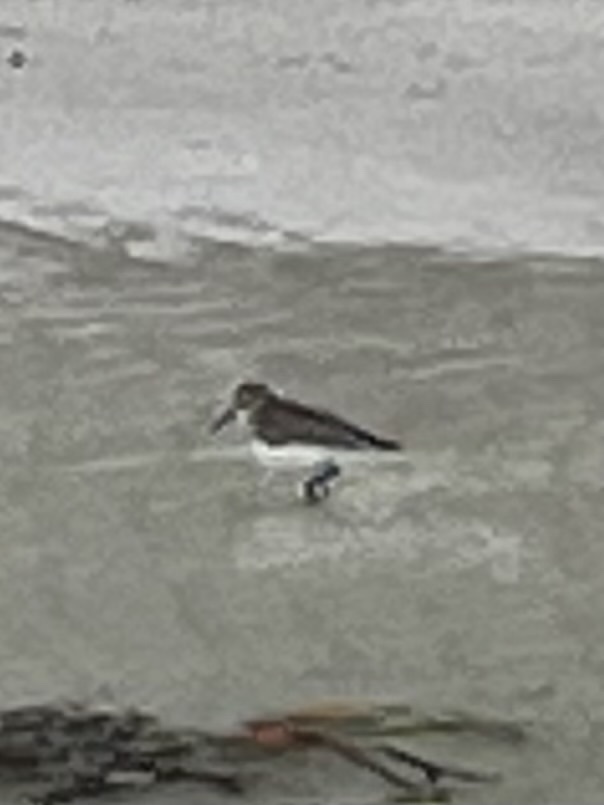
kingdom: Animalia
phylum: Chordata
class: Aves
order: Charadriiformes
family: Scolopacidae
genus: Calidris
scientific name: Calidris alpina
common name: Dunlin
